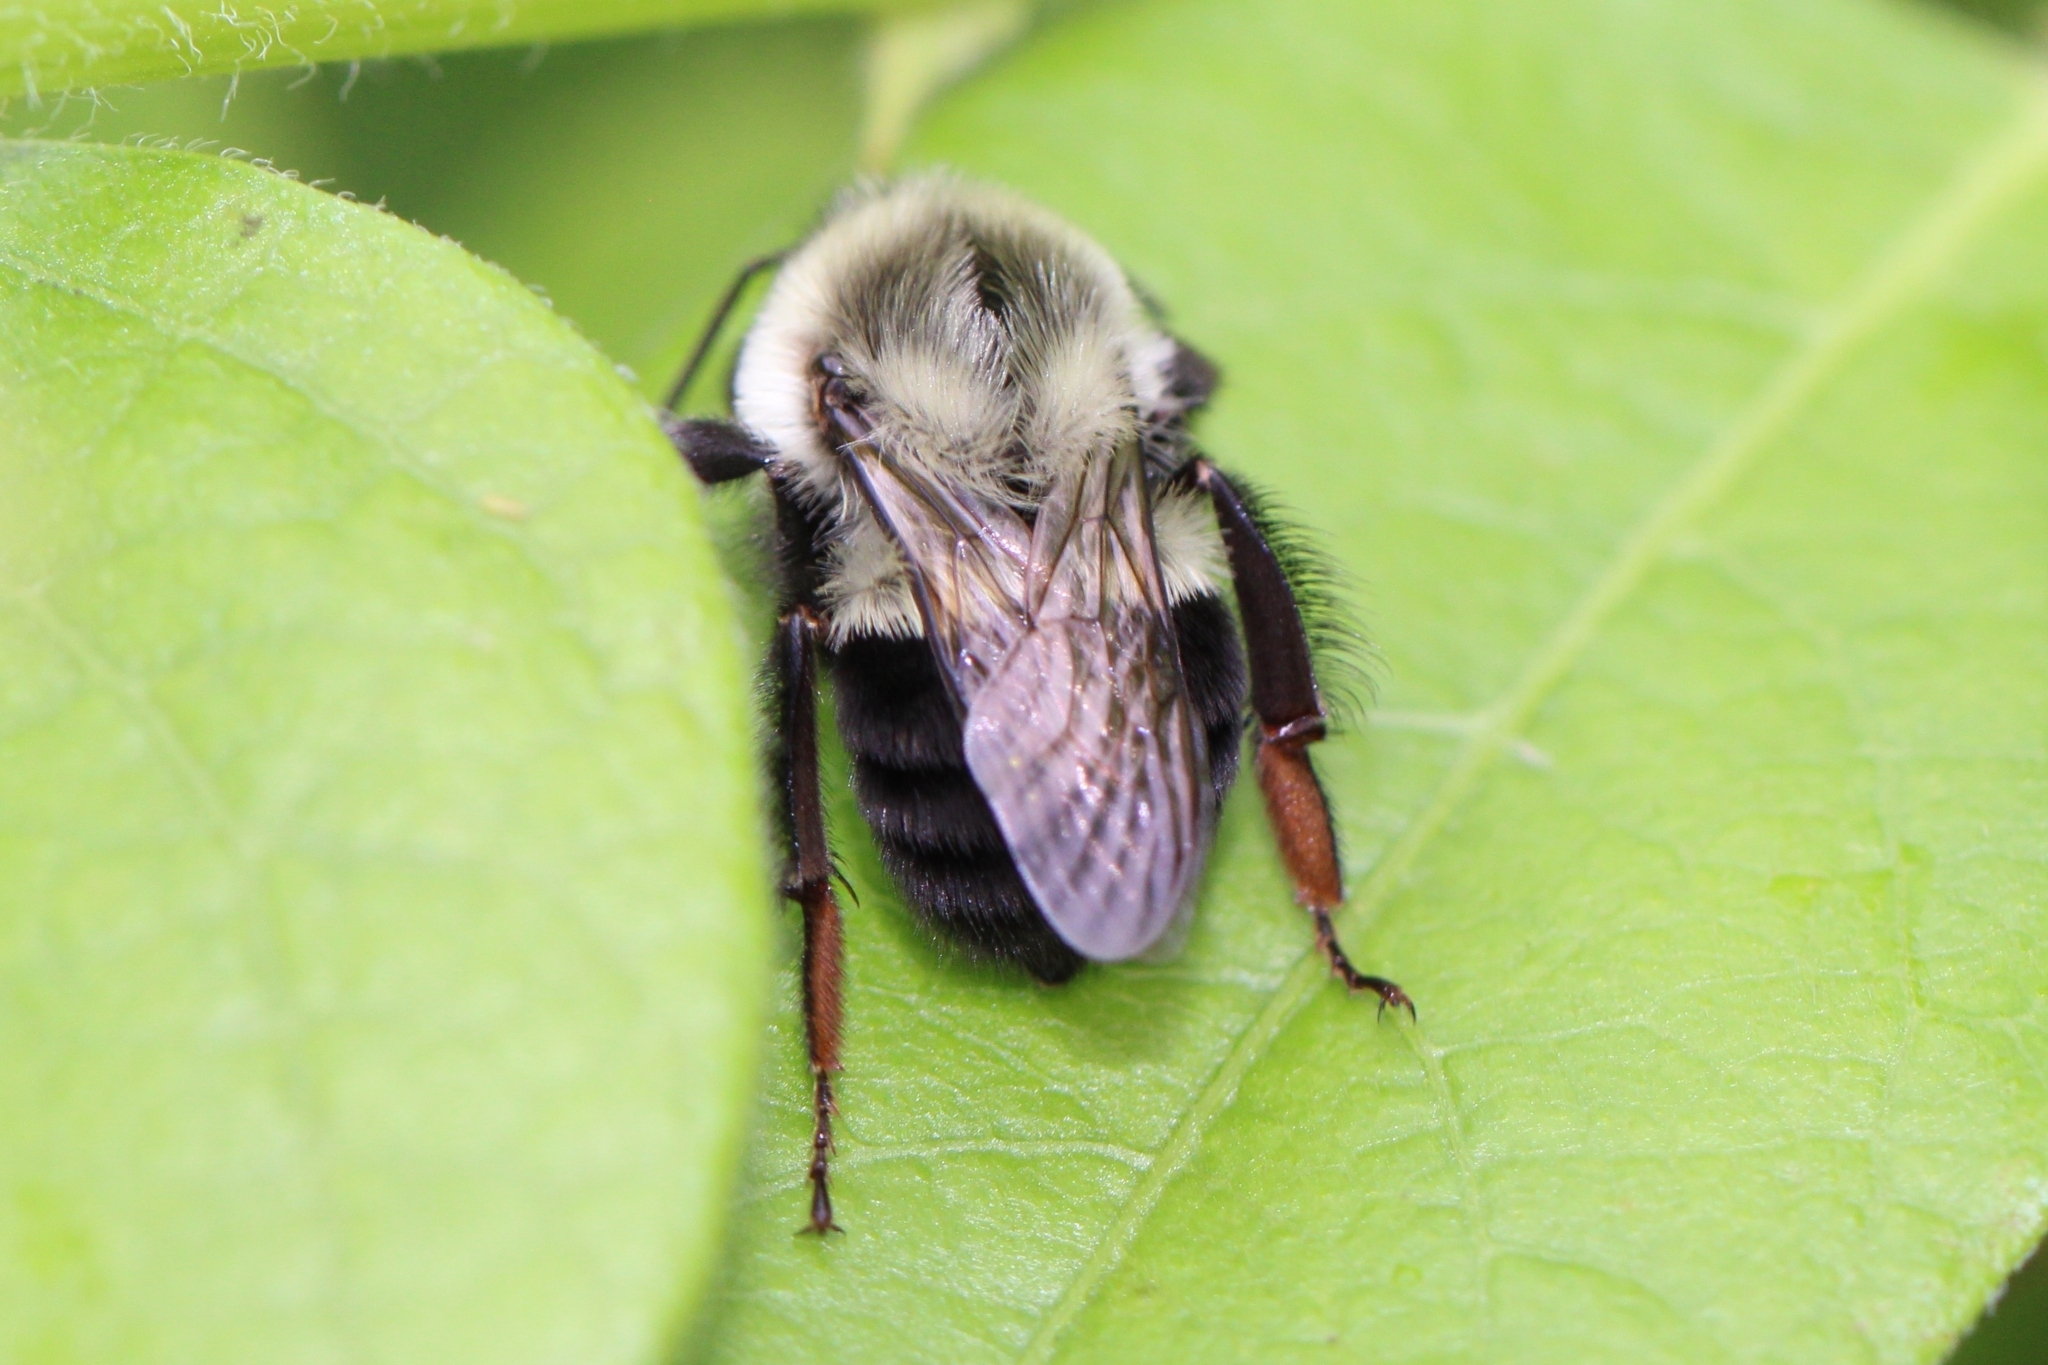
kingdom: Animalia
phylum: Arthropoda
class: Insecta
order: Hymenoptera
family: Apidae
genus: Bombus
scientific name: Bombus impatiens
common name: Common eastern bumble bee
